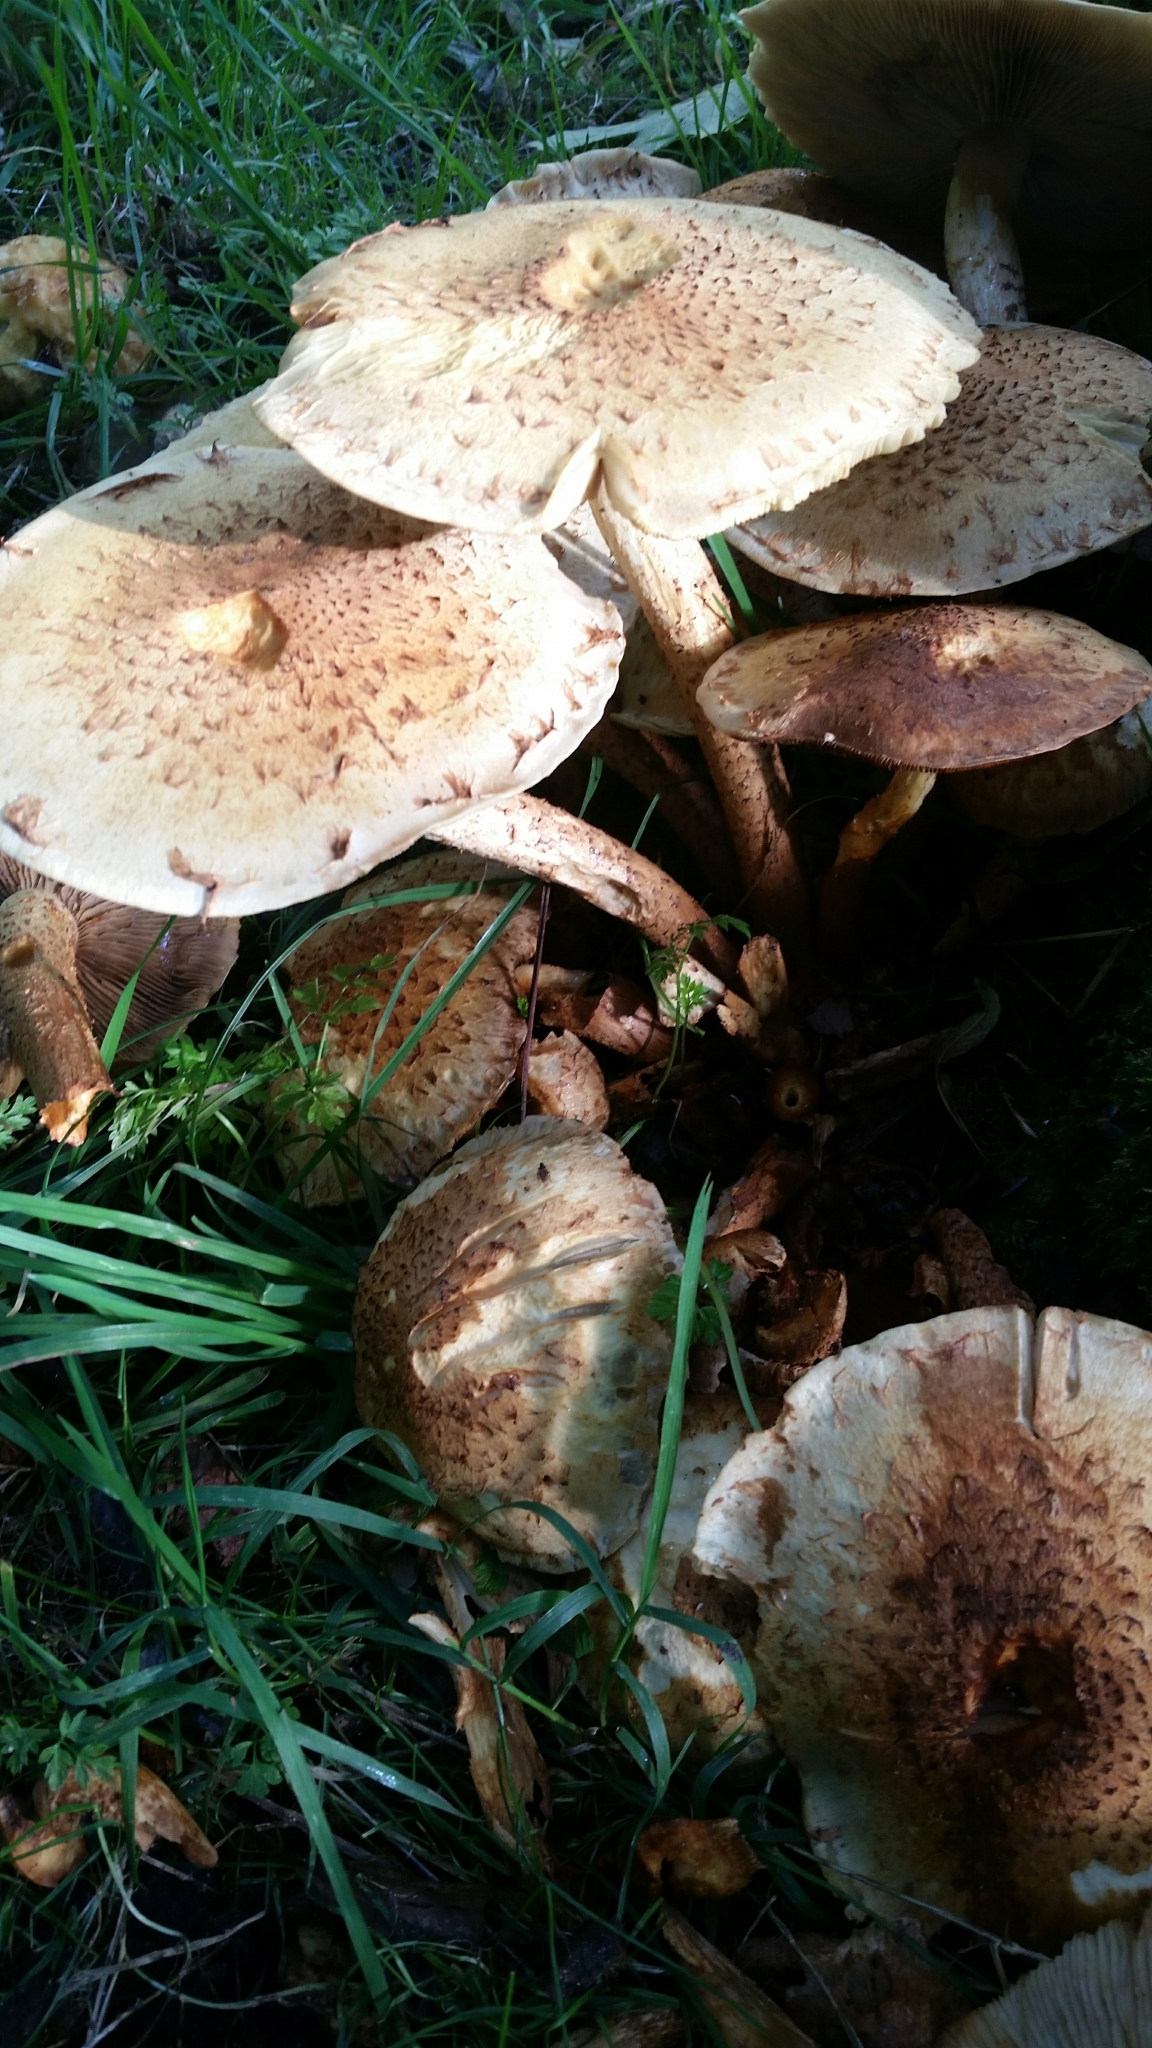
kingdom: Fungi
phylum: Basidiomycota
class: Agaricomycetes
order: Agaricales
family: Strophariaceae
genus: Pholiota
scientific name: Pholiota squarrosa
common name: Shaggy pholiota
